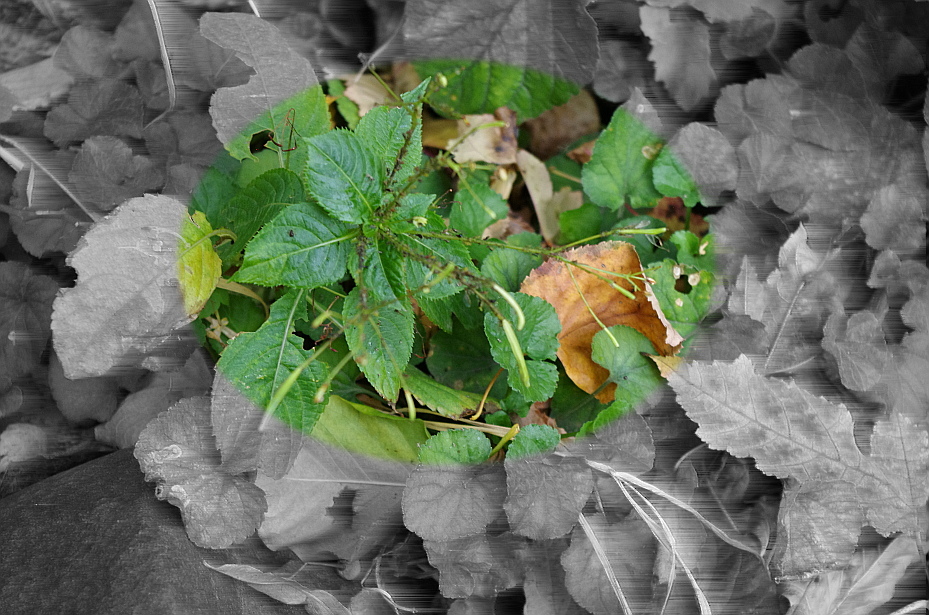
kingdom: Plantae
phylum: Tracheophyta
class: Magnoliopsida
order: Ericales
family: Balsaminaceae
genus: Impatiens
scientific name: Impatiens parviflora
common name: Small balsam
